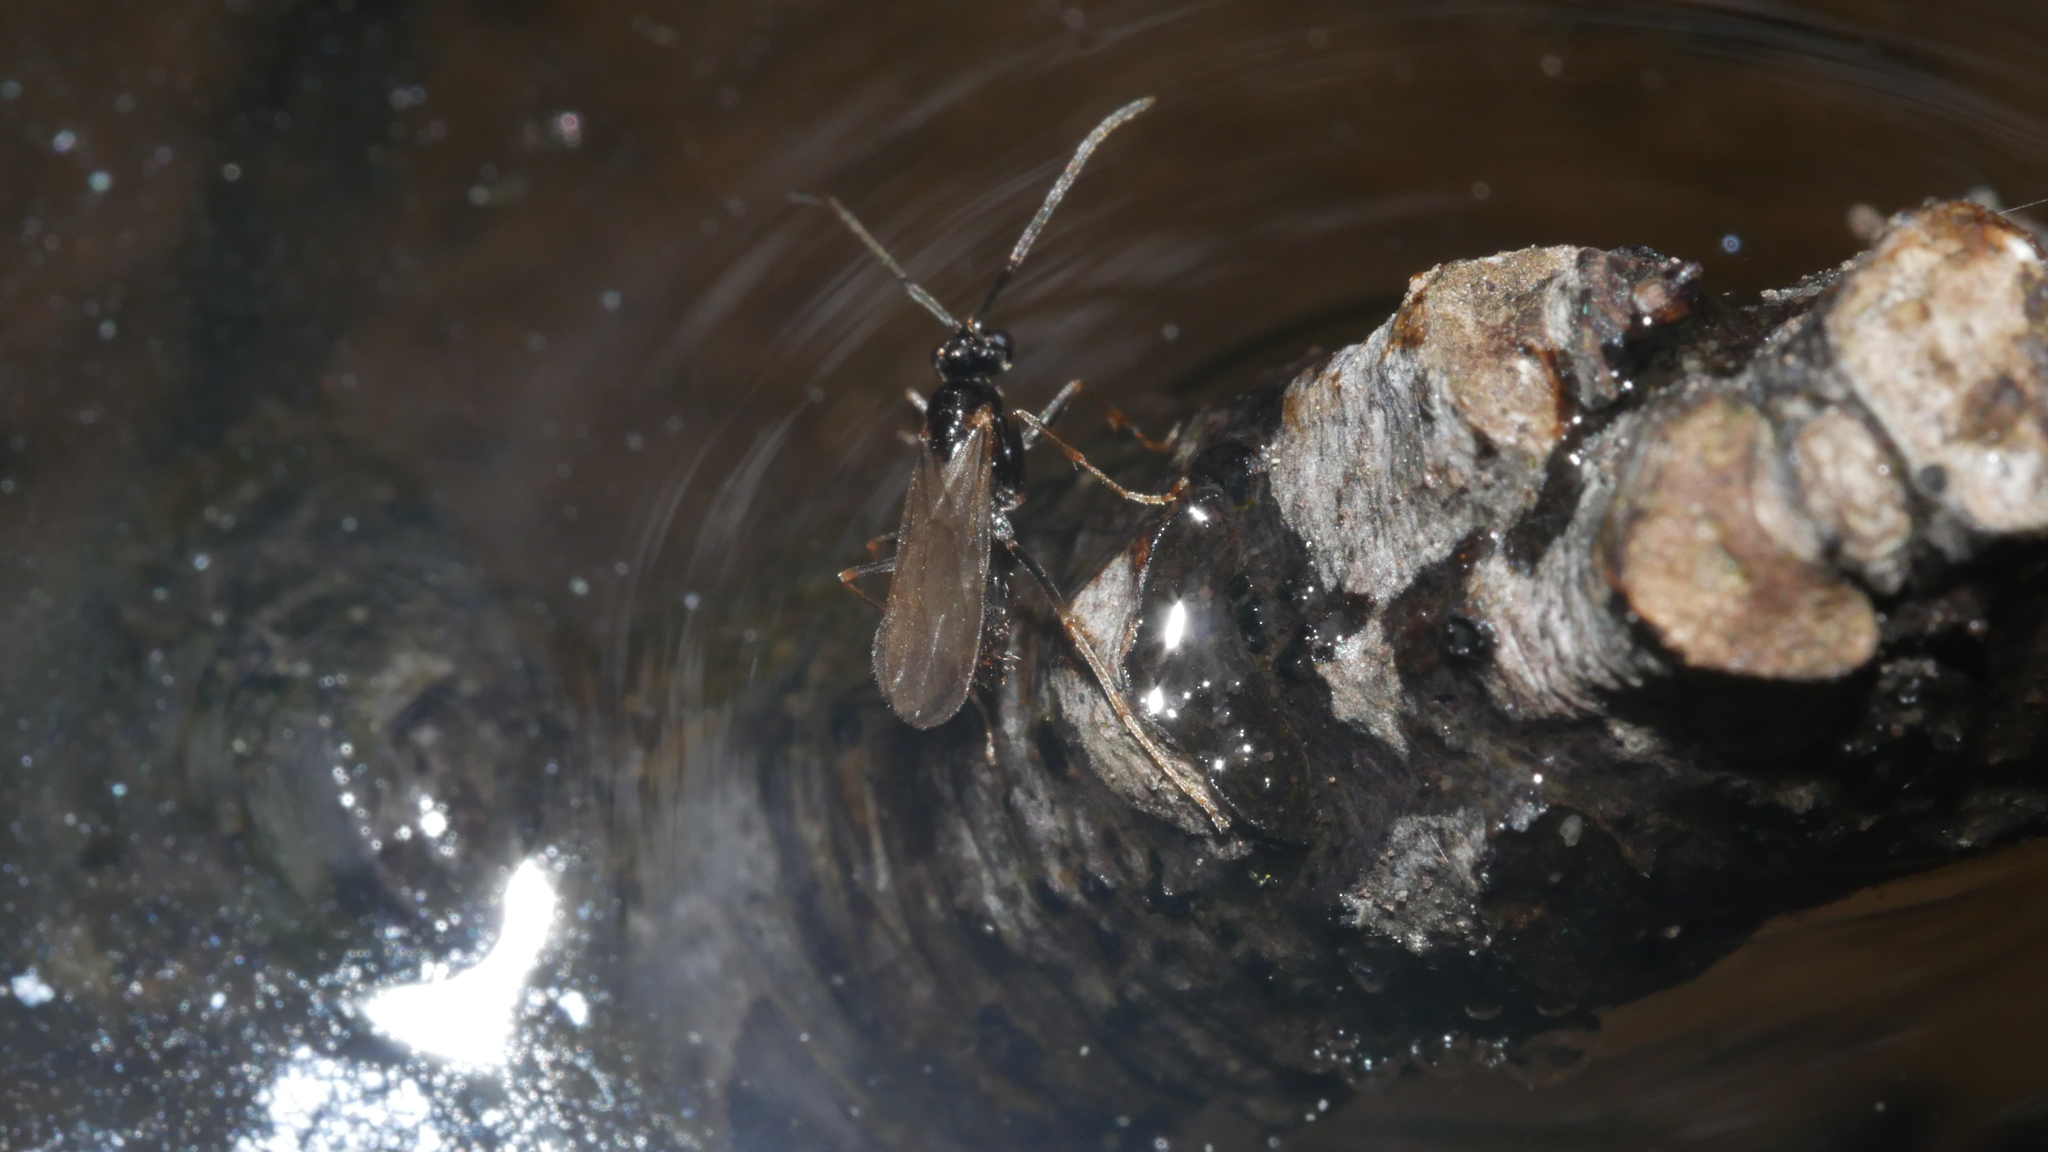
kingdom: Animalia
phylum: Arthropoda
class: Insecta
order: Hymenoptera
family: Formicidae
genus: Prenolepis
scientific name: Prenolepis imparis
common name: Small honey ant
